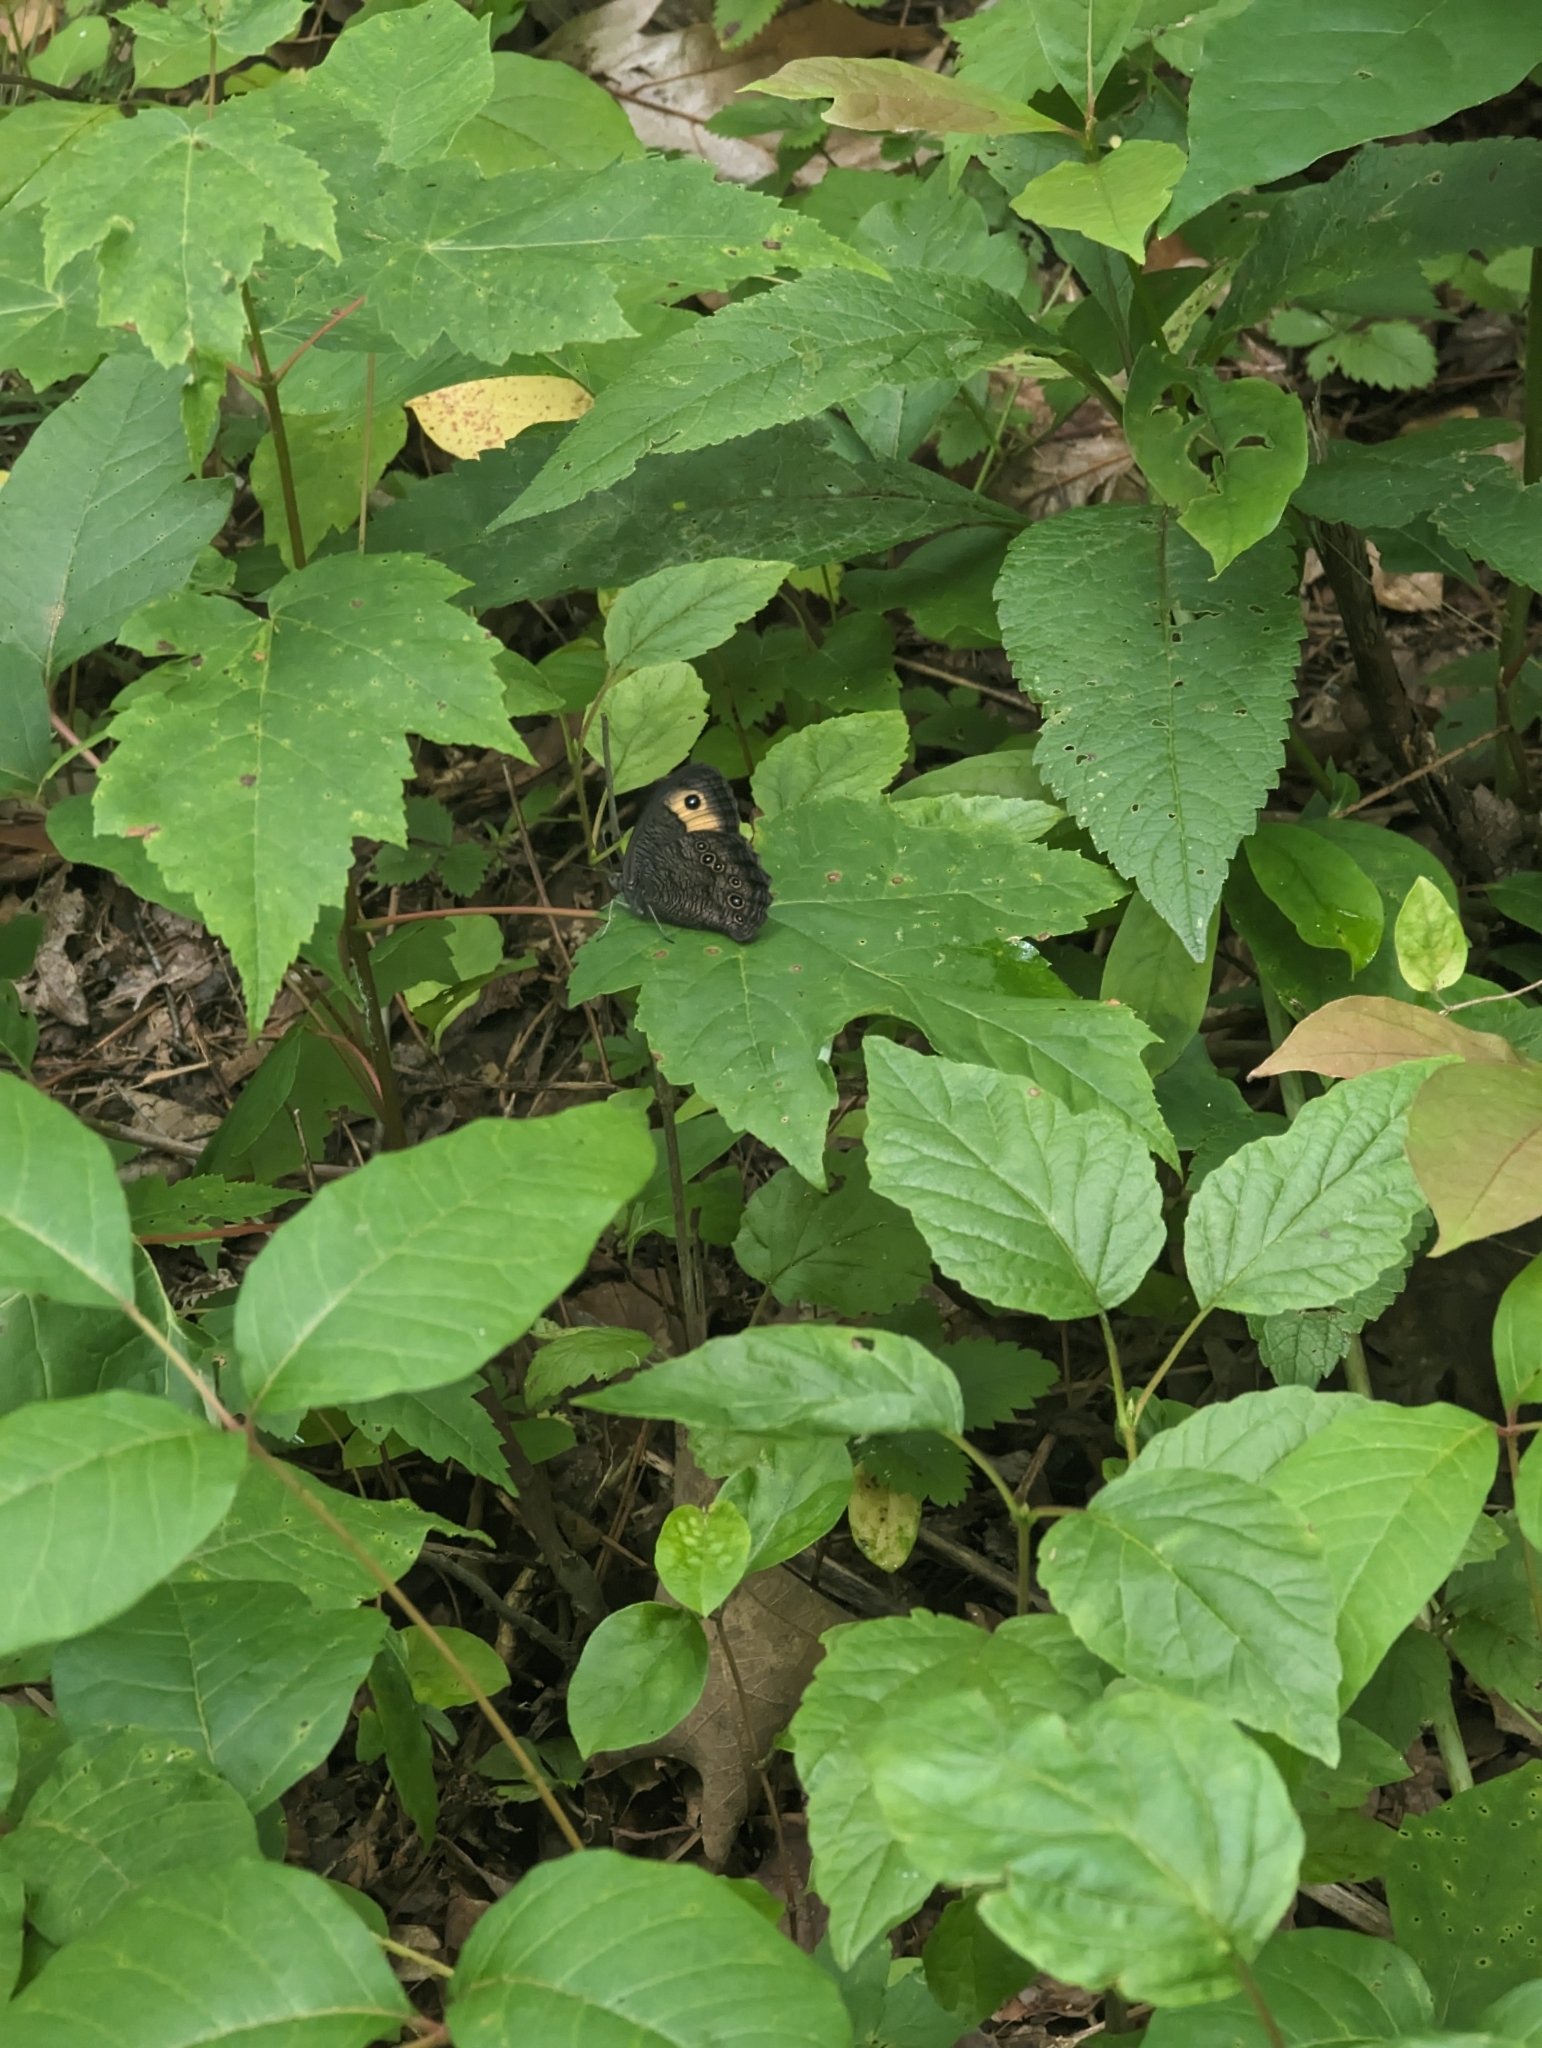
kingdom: Animalia
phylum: Arthropoda
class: Insecta
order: Lepidoptera
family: Nymphalidae
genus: Cercyonis
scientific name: Cercyonis pegala
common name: Common wood-nymph
